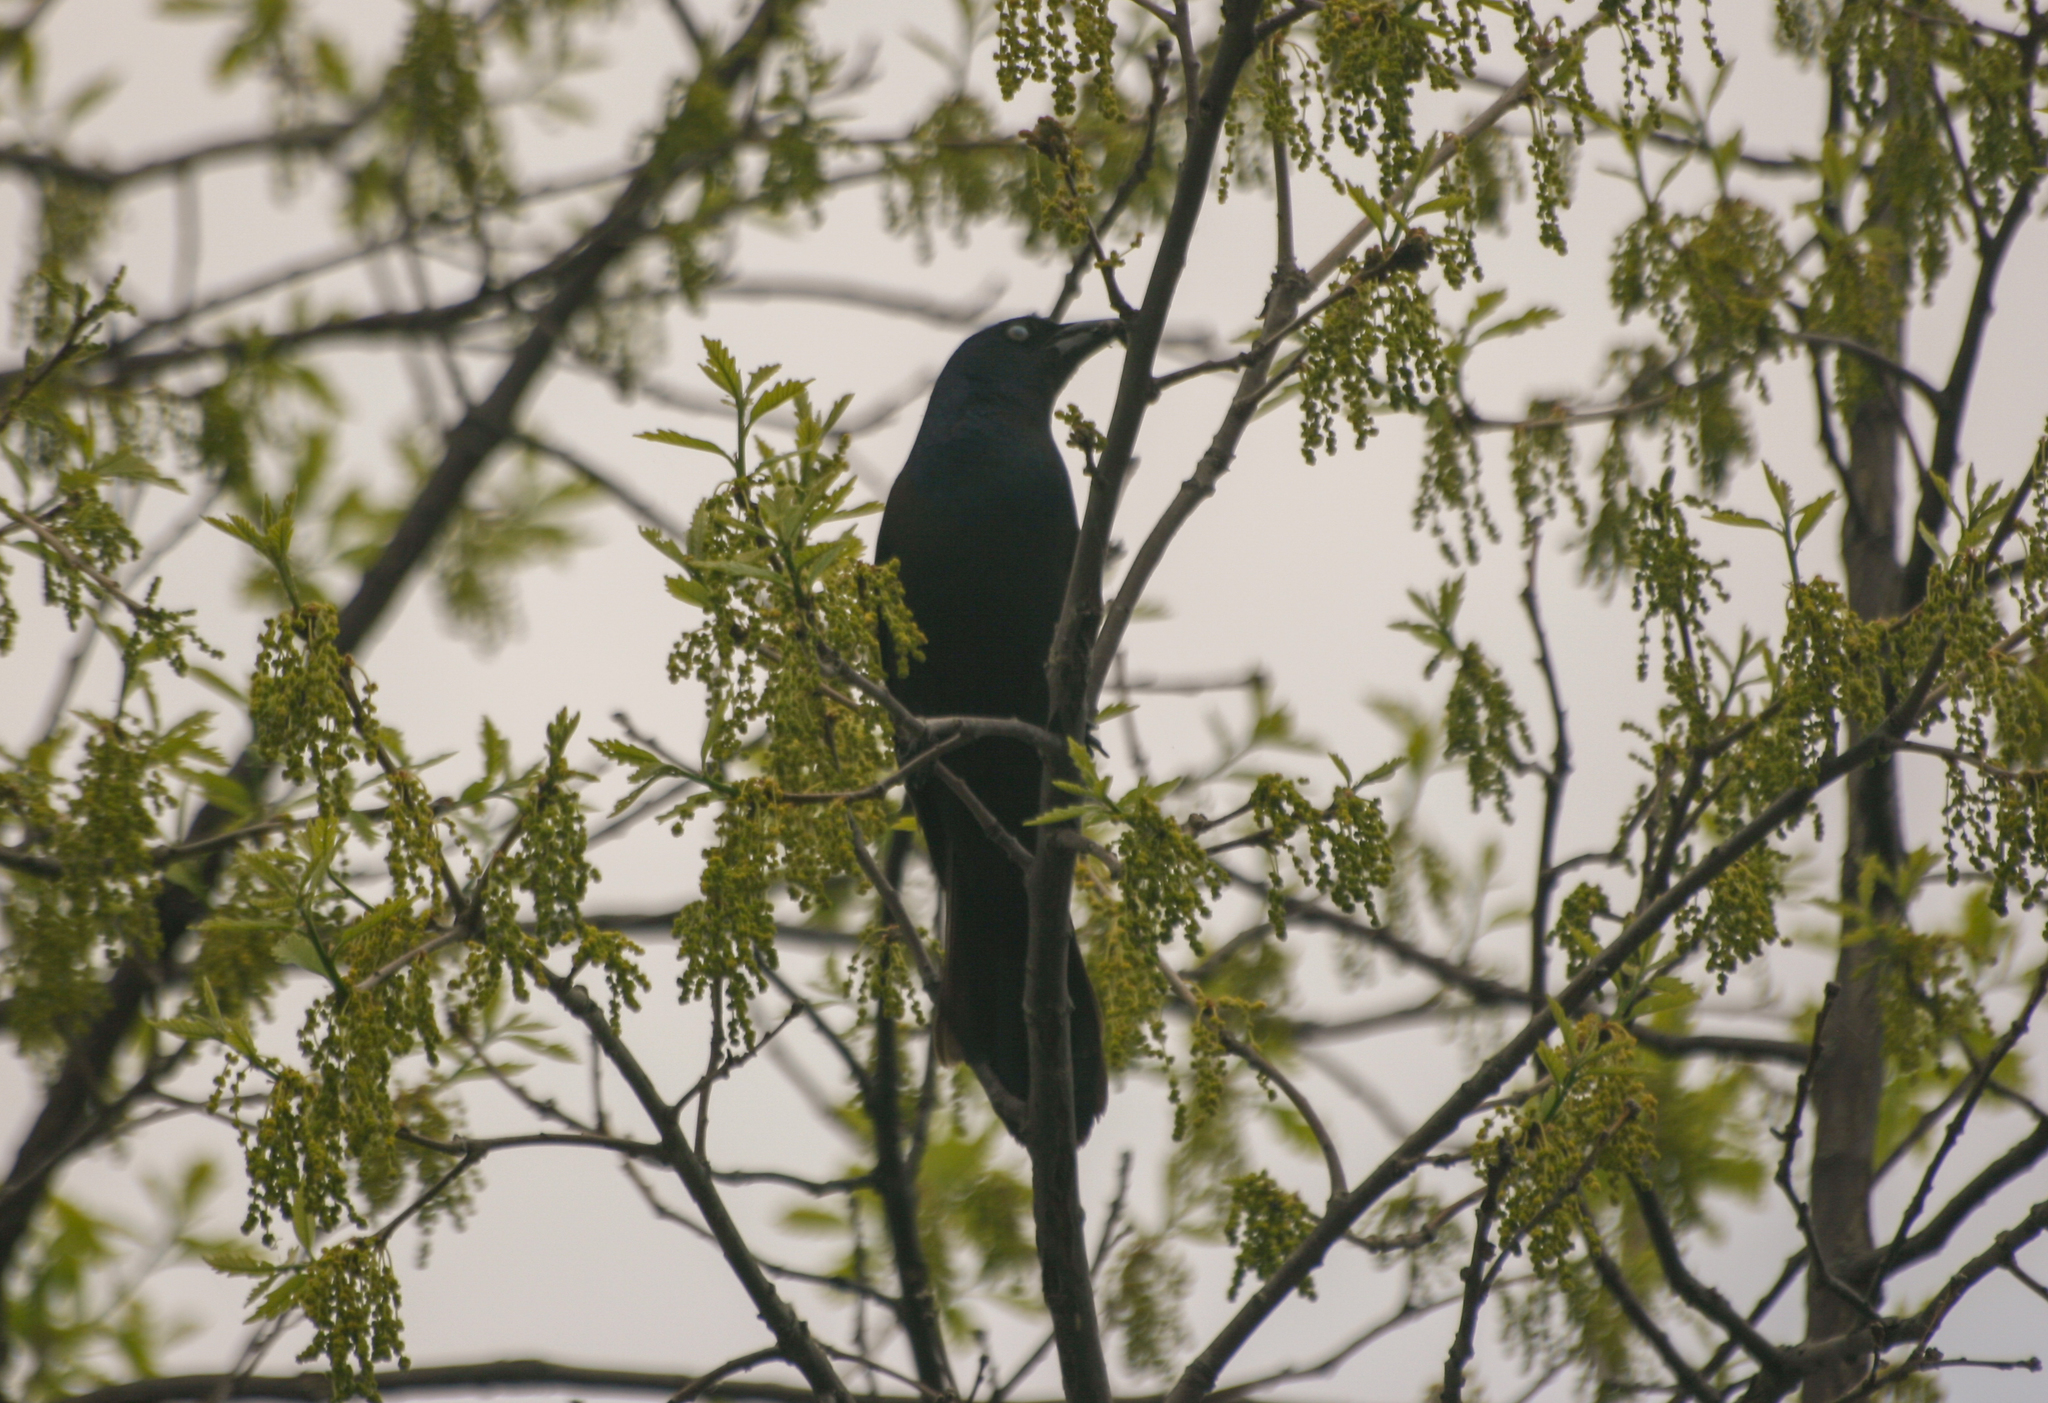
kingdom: Animalia
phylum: Chordata
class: Aves
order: Passeriformes
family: Icteridae
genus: Quiscalus
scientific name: Quiscalus quiscula
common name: Common grackle
